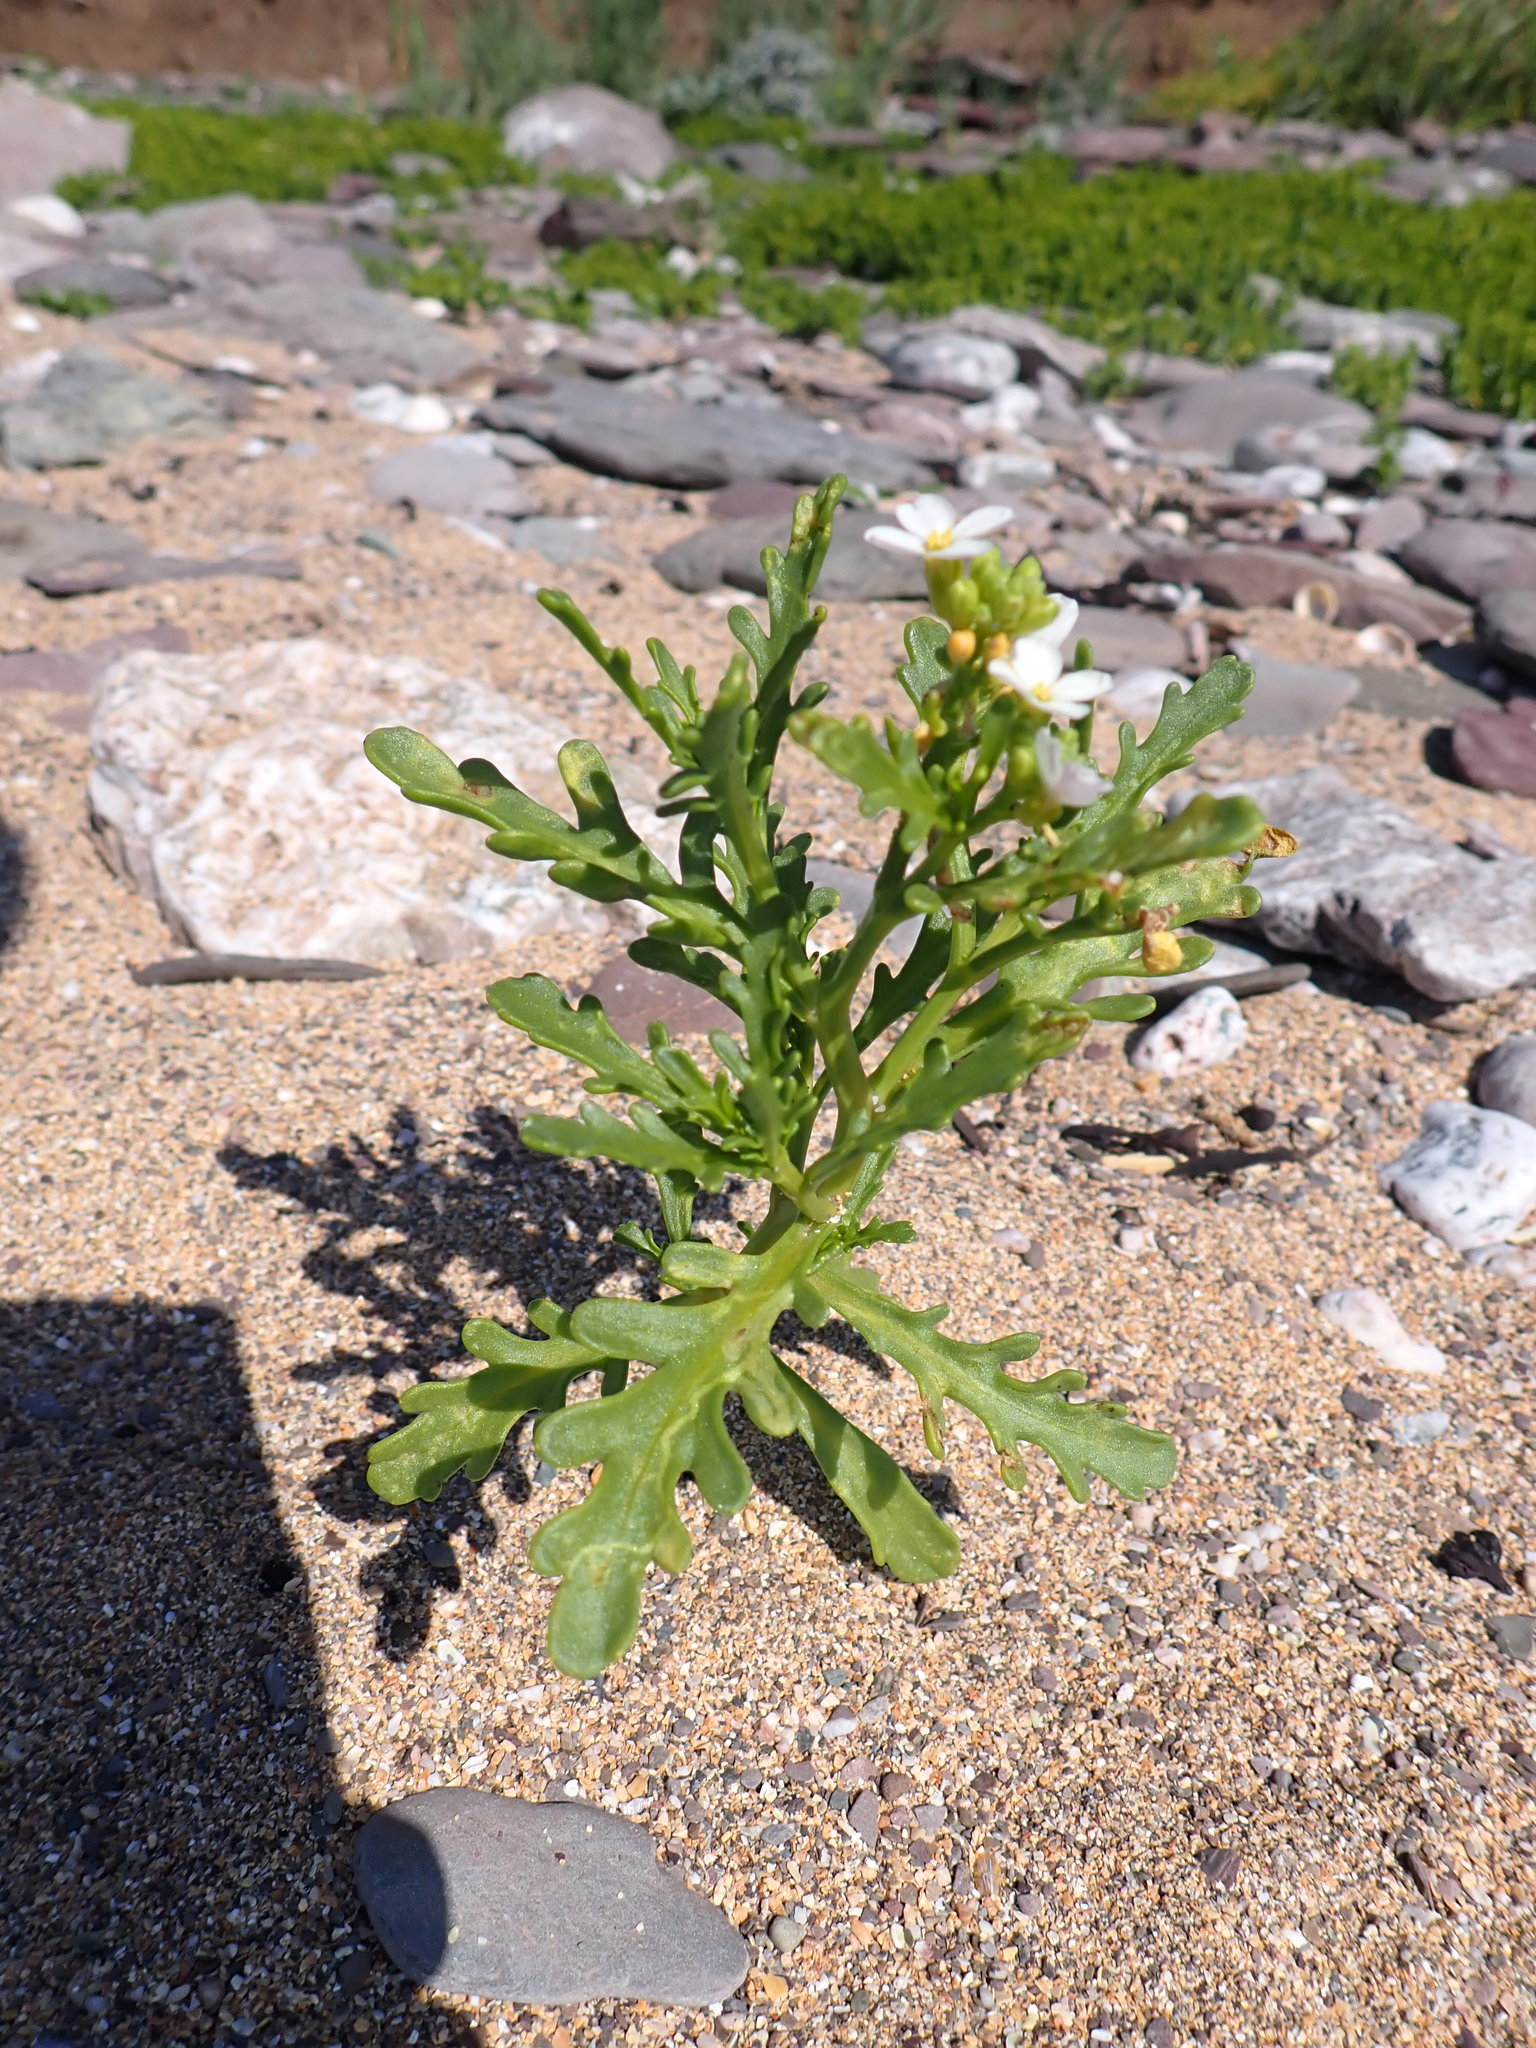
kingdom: Plantae
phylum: Tracheophyta
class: Magnoliopsida
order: Brassicales
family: Brassicaceae
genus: Cakile
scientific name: Cakile maritima
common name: Sea rocket
